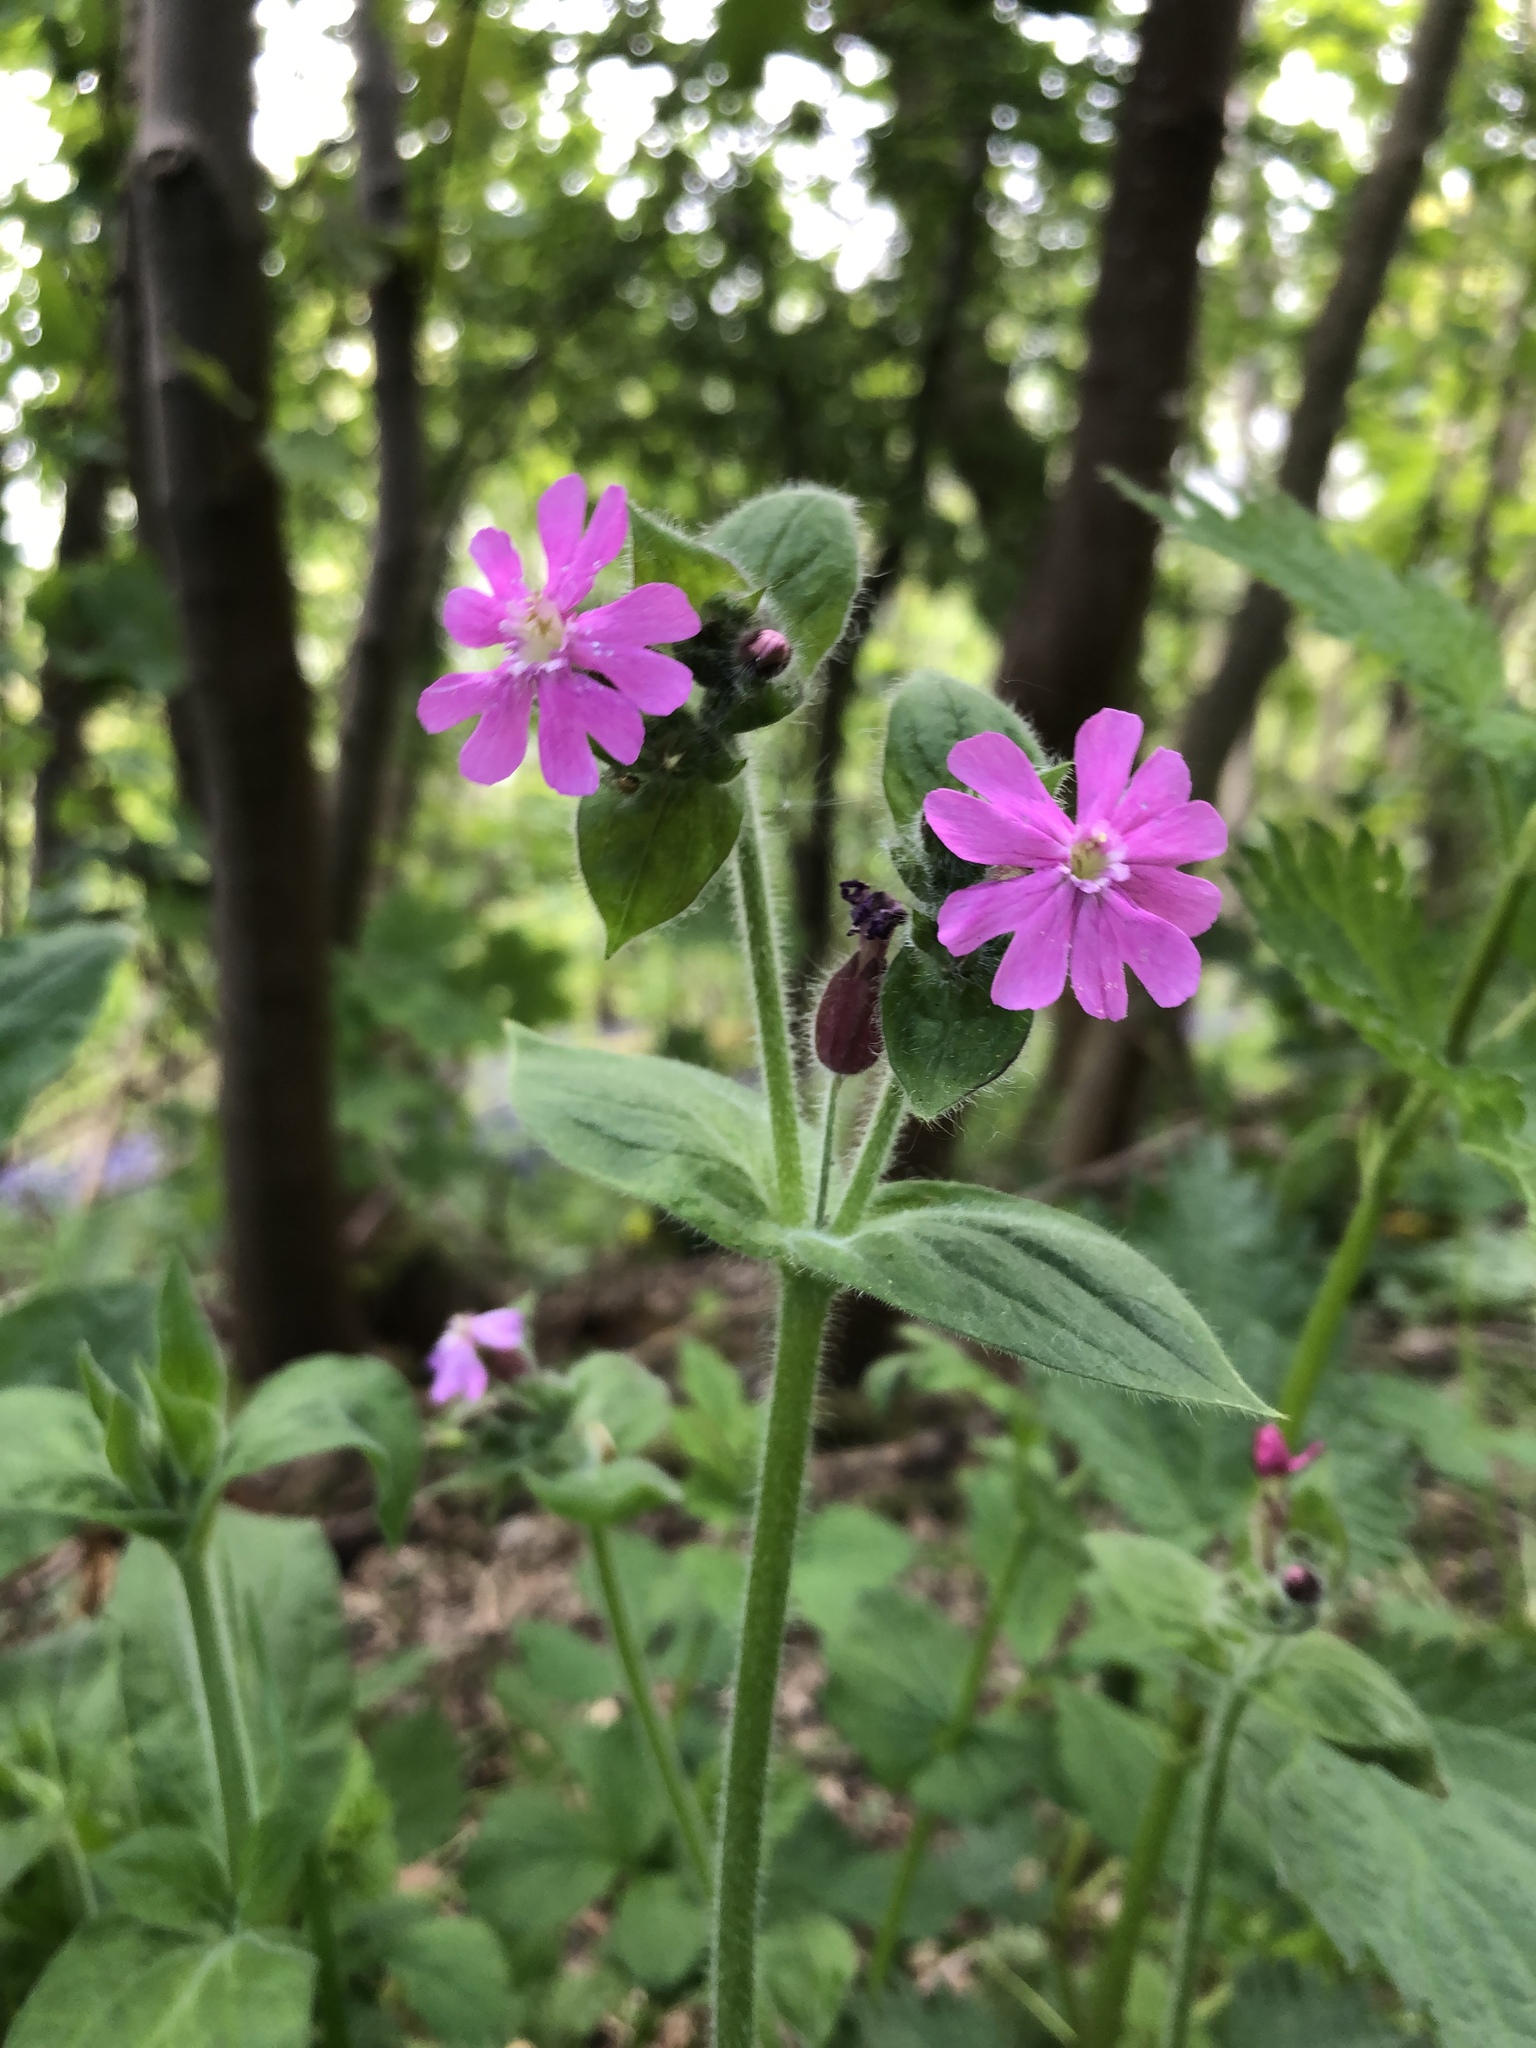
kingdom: Plantae
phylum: Tracheophyta
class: Magnoliopsida
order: Caryophyllales
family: Caryophyllaceae
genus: Silene
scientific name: Silene dioica
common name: Red campion
